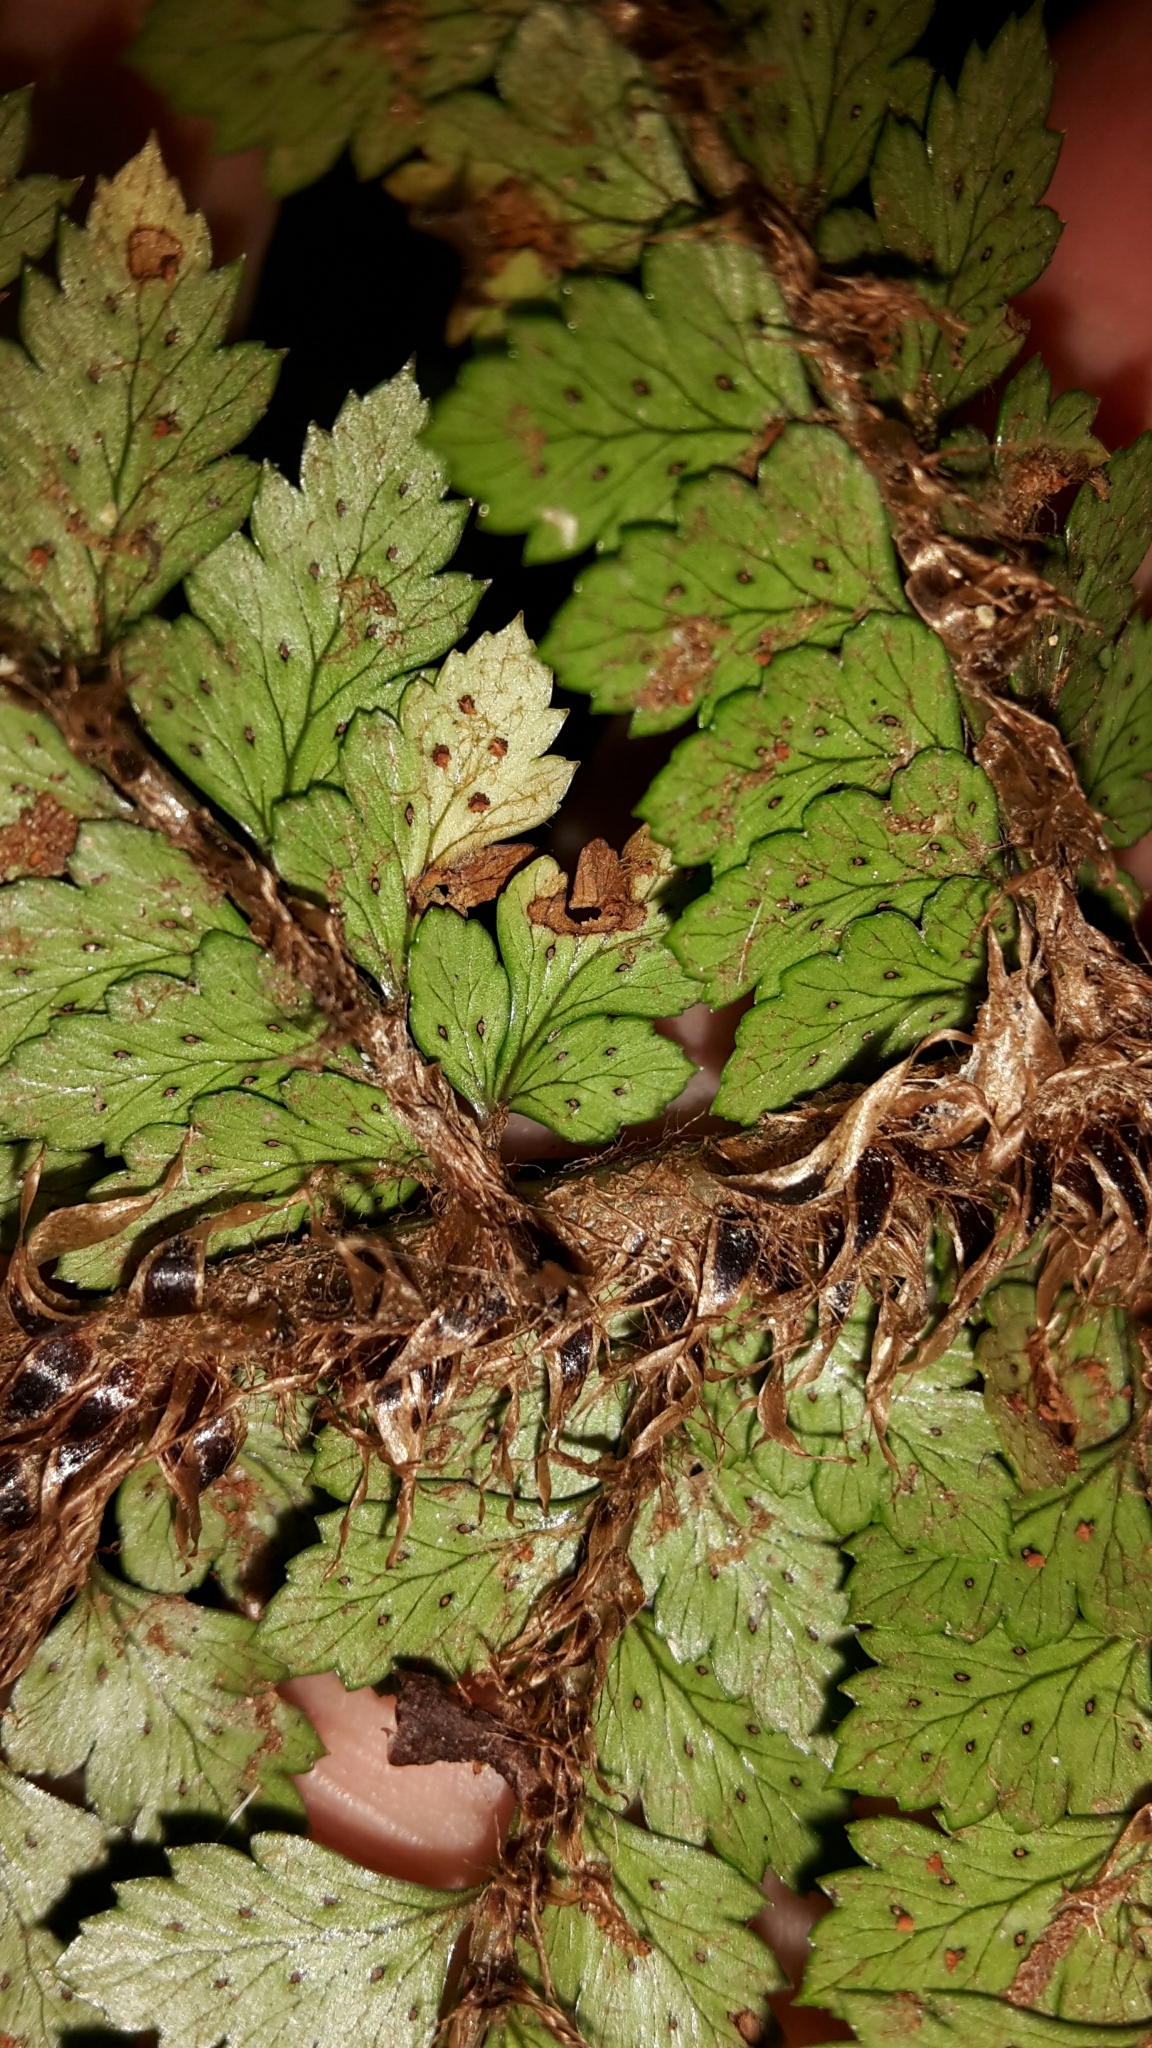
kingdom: Plantae
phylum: Tracheophyta
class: Polypodiopsida
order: Polypodiales
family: Dryopteridaceae
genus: Polystichum
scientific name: Polystichum vestitum
